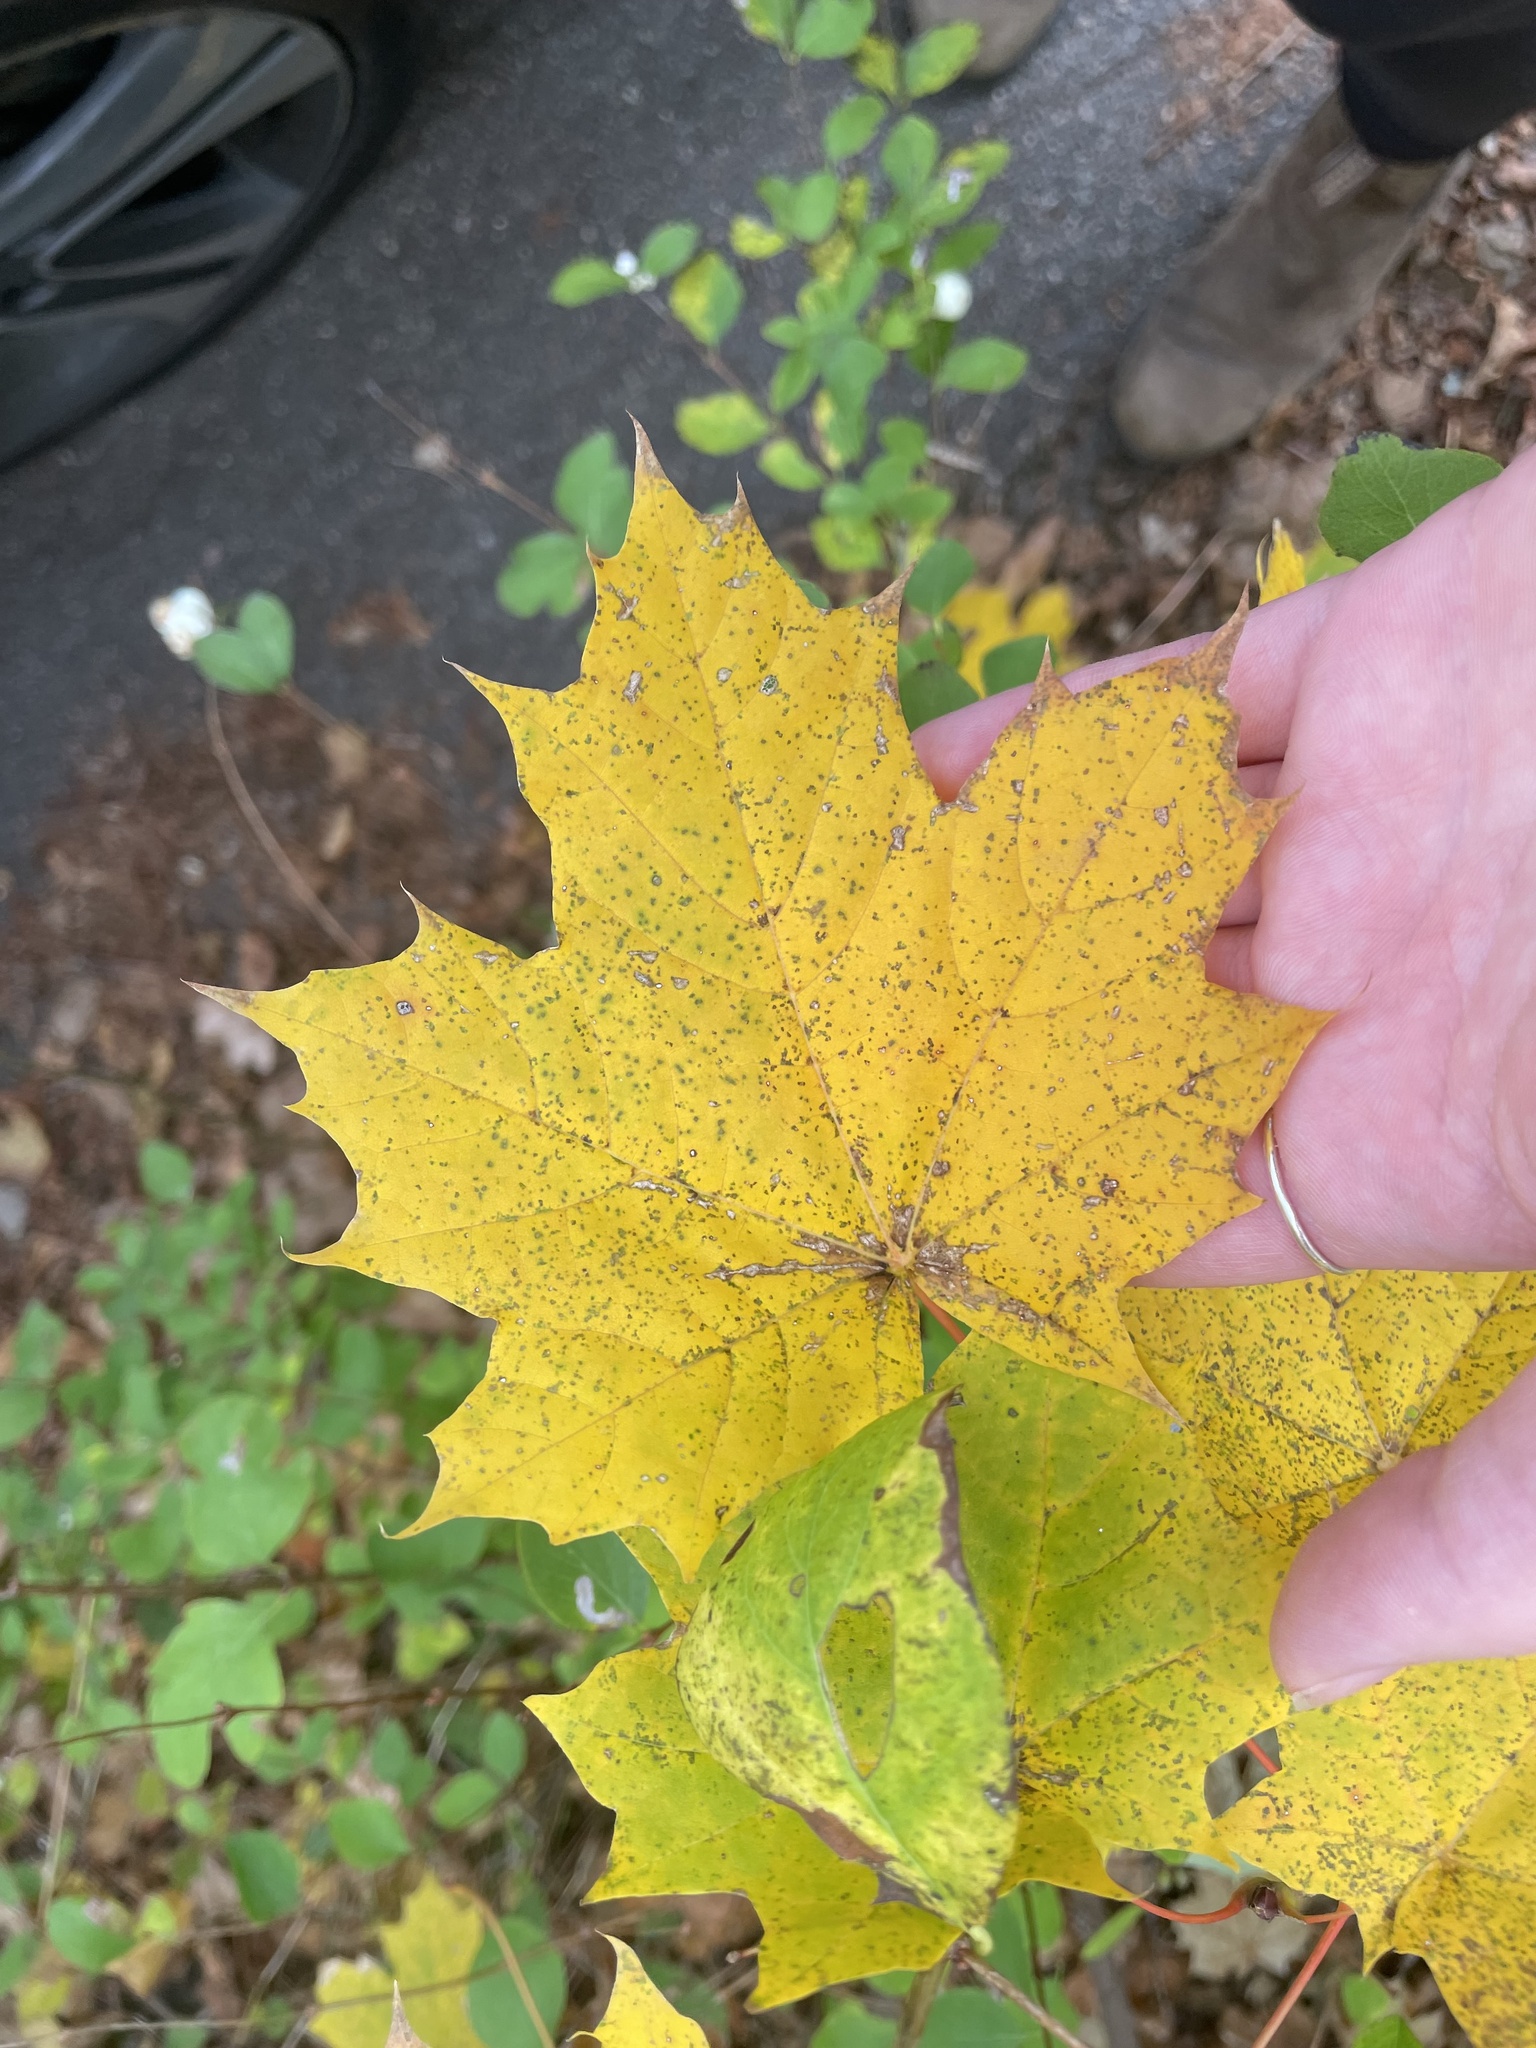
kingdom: Plantae
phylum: Tracheophyta
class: Magnoliopsida
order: Sapindales
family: Sapindaceae
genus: Acer
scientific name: Acer platanoides
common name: Norway maple
